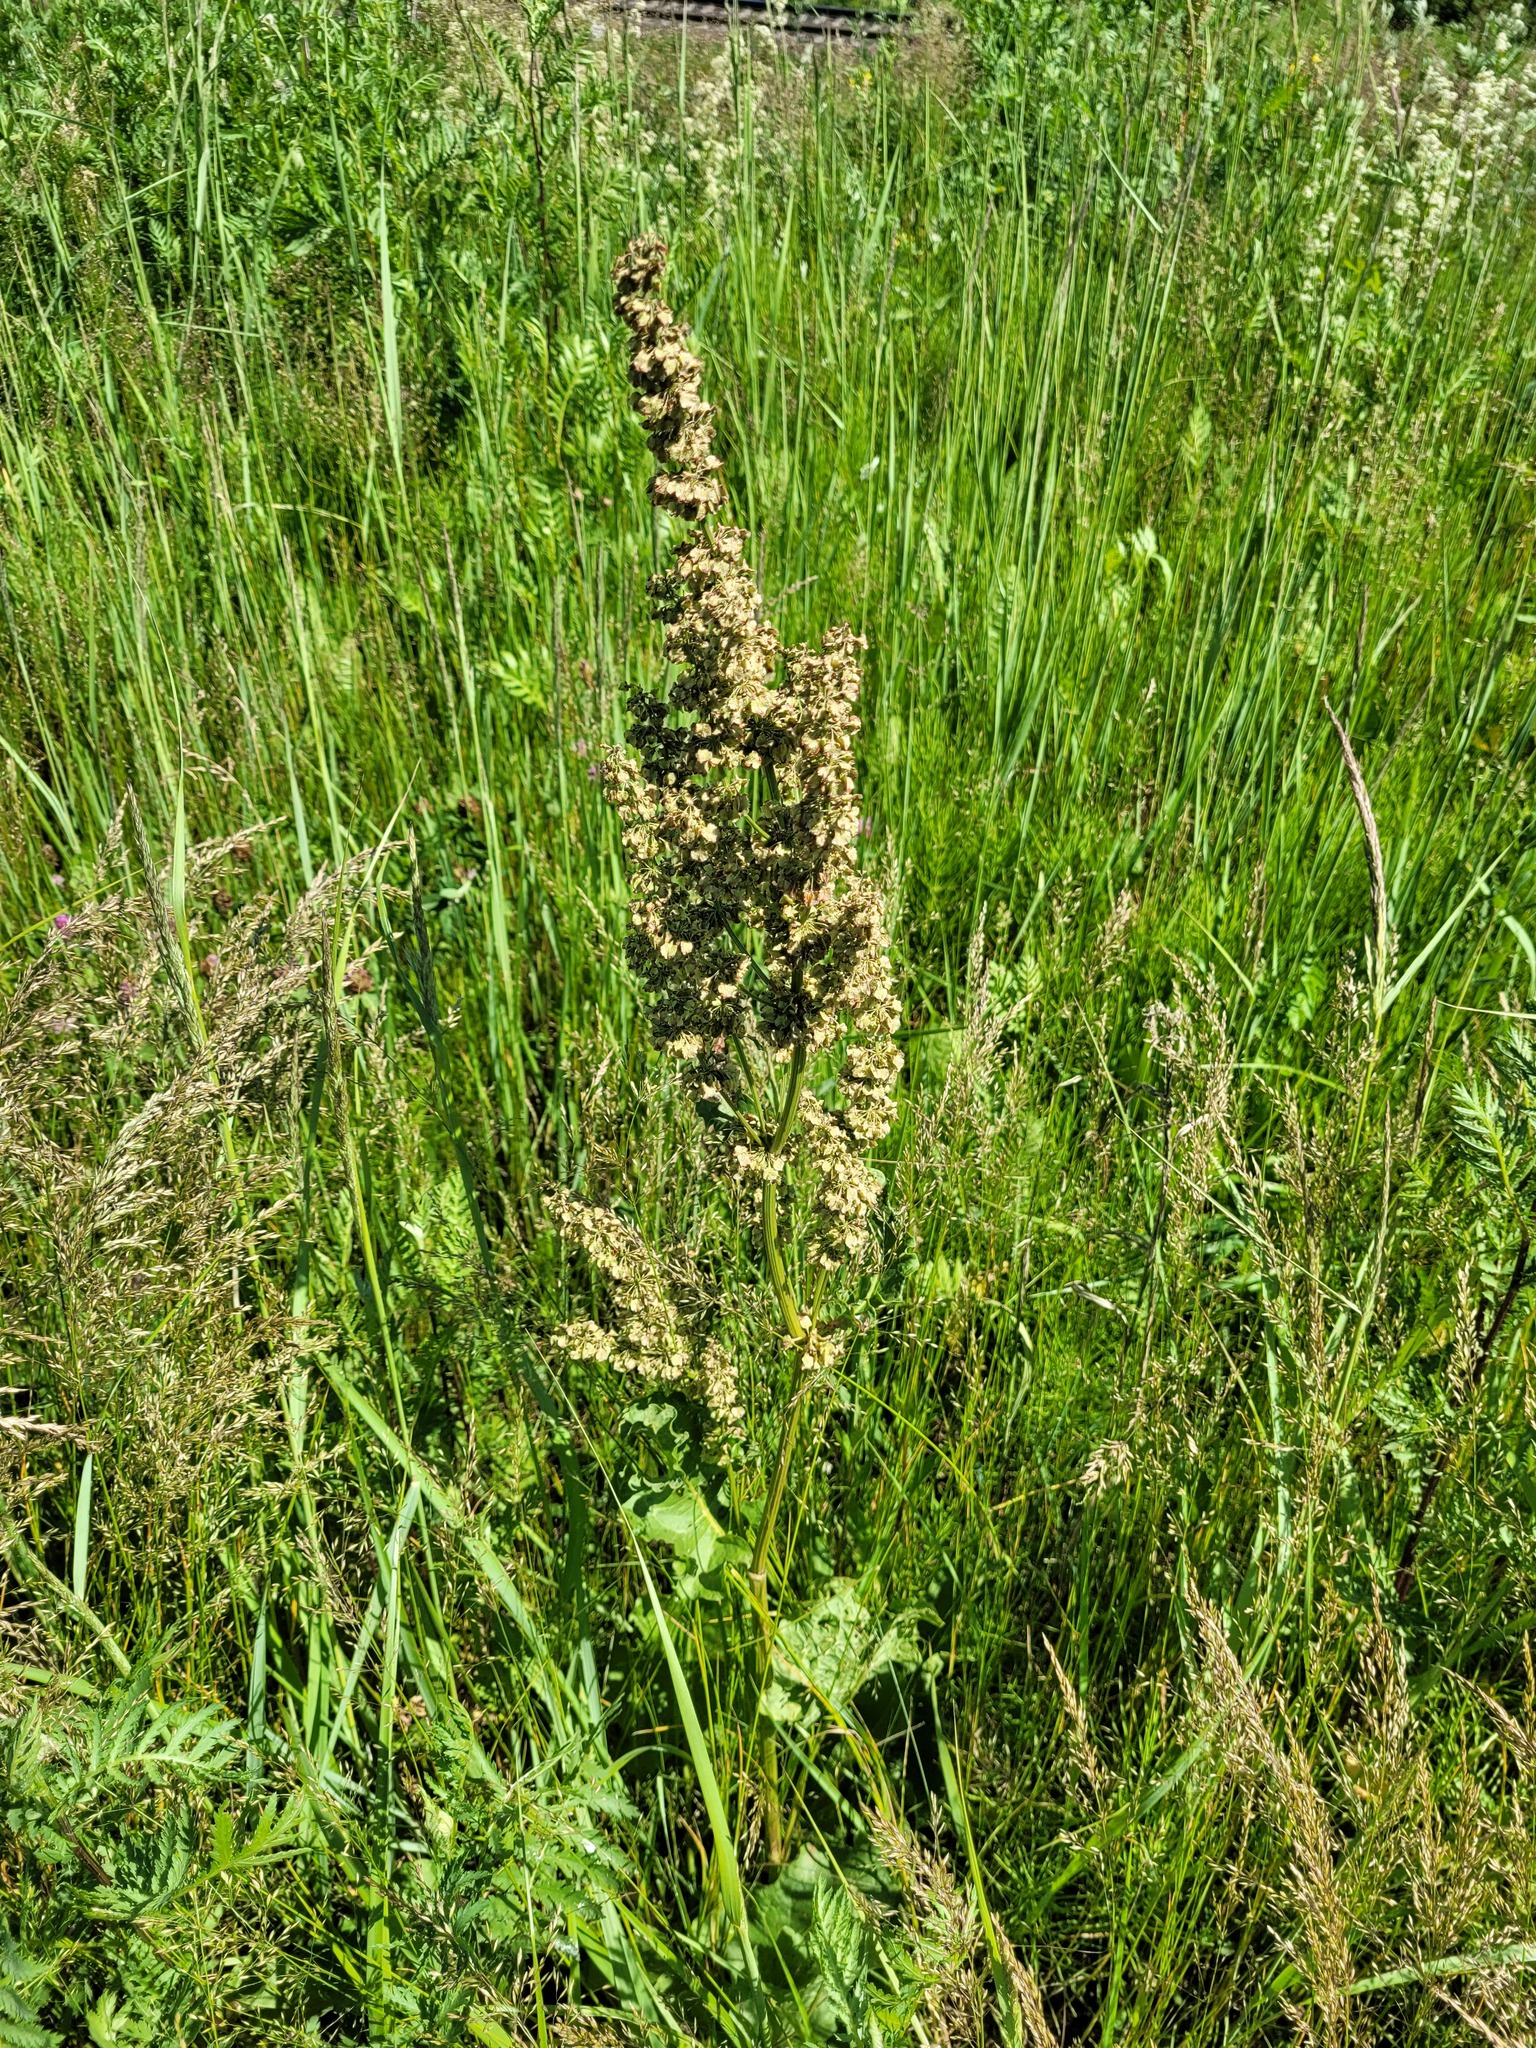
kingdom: Plantae
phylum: Tracheophyta
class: Magnoliopsida
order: Caryophyllales
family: Polygonaceae
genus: Rumex
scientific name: Rumex confertus
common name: Russian dock
